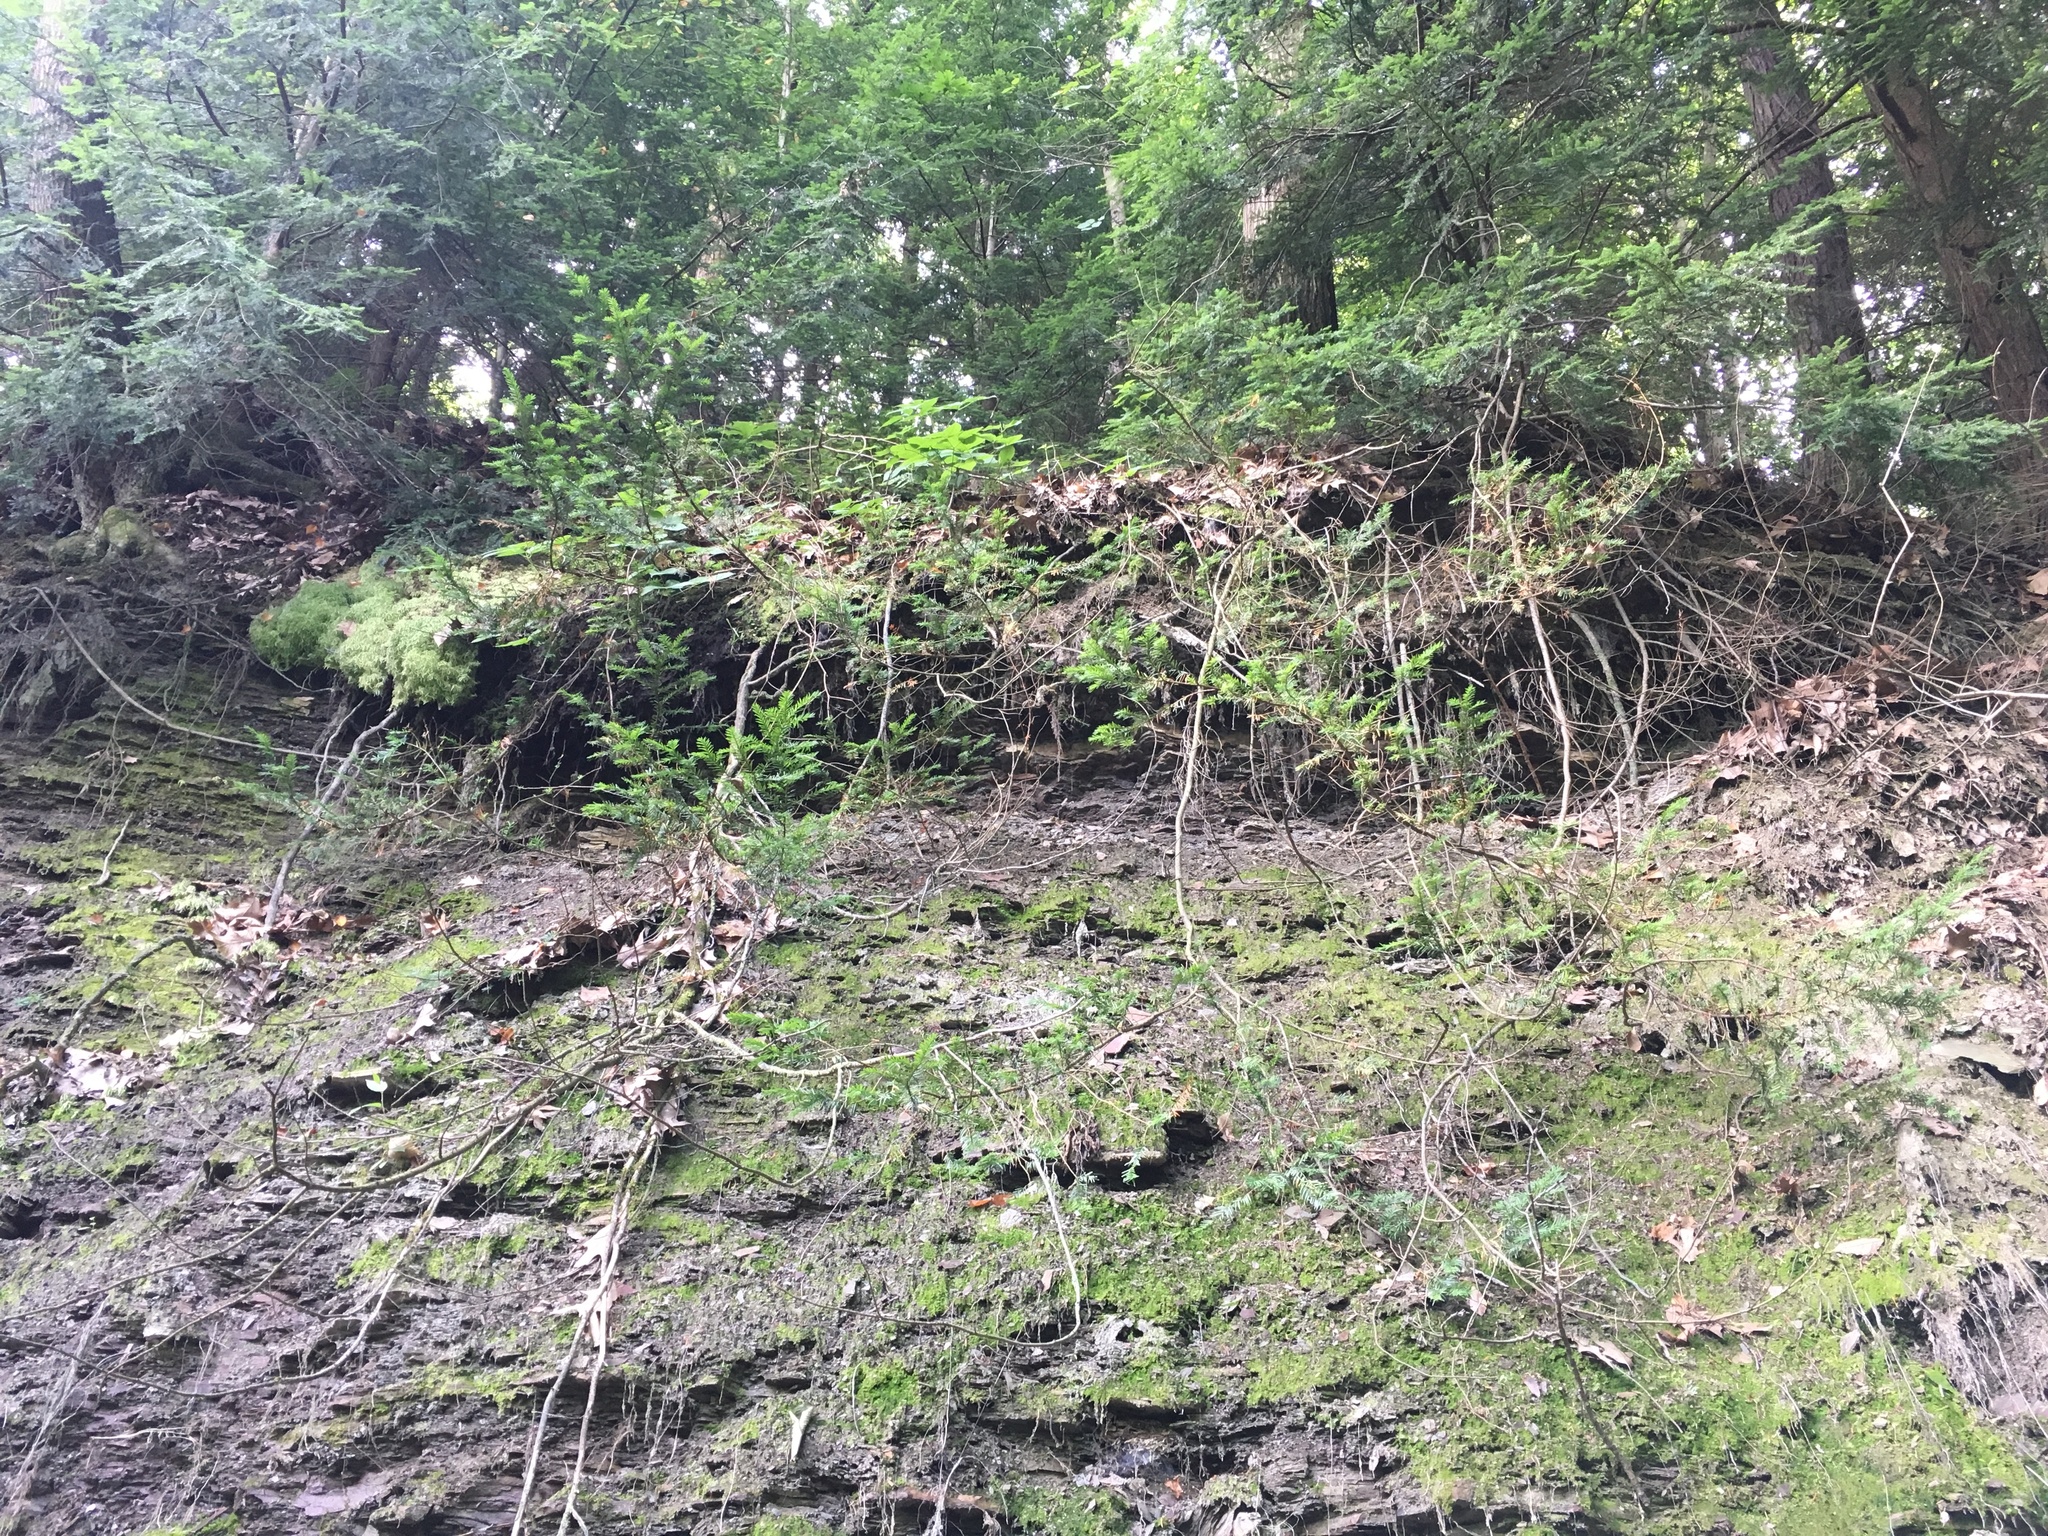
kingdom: Plantae
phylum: Tracheophyta
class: Pinopsida
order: Pinales
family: Taxaceae
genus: Taxus
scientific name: Taxus canadensis
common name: American yew
